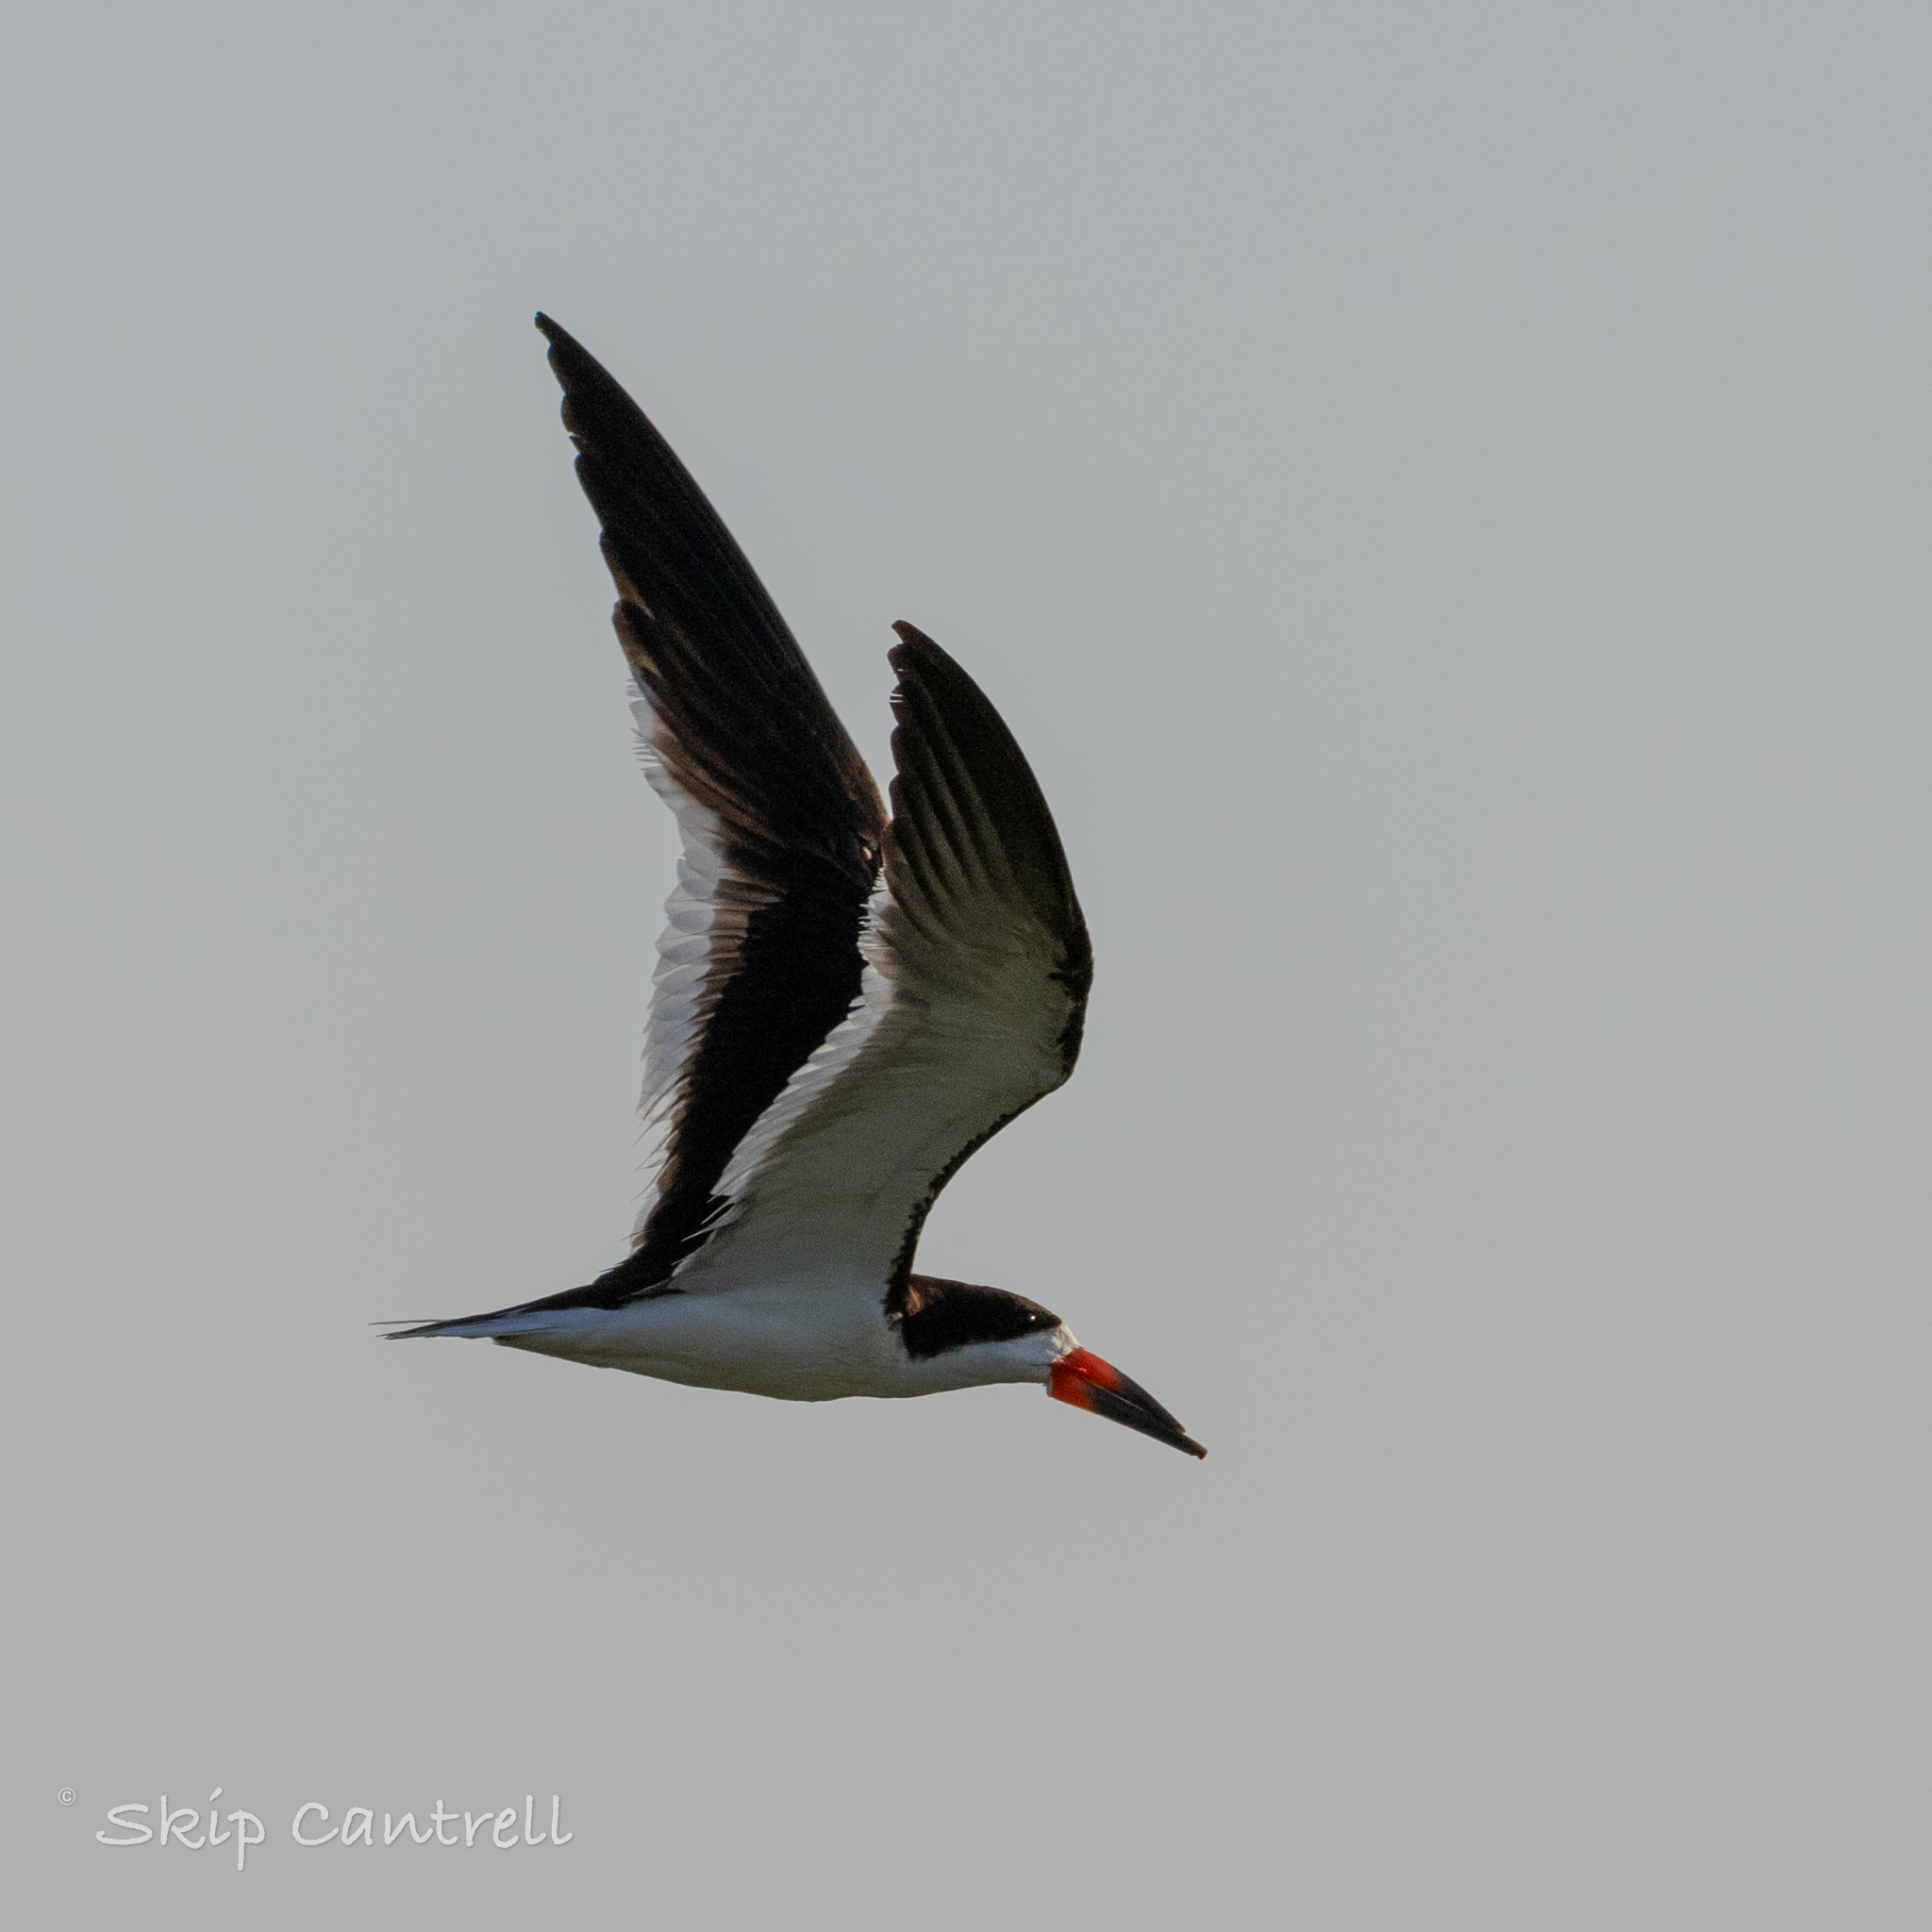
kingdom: Animalia
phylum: Chordata
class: Aves
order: Charadriiformes
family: Laridae
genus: Rynchops
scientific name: Rynchops niger
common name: Black skimmer
